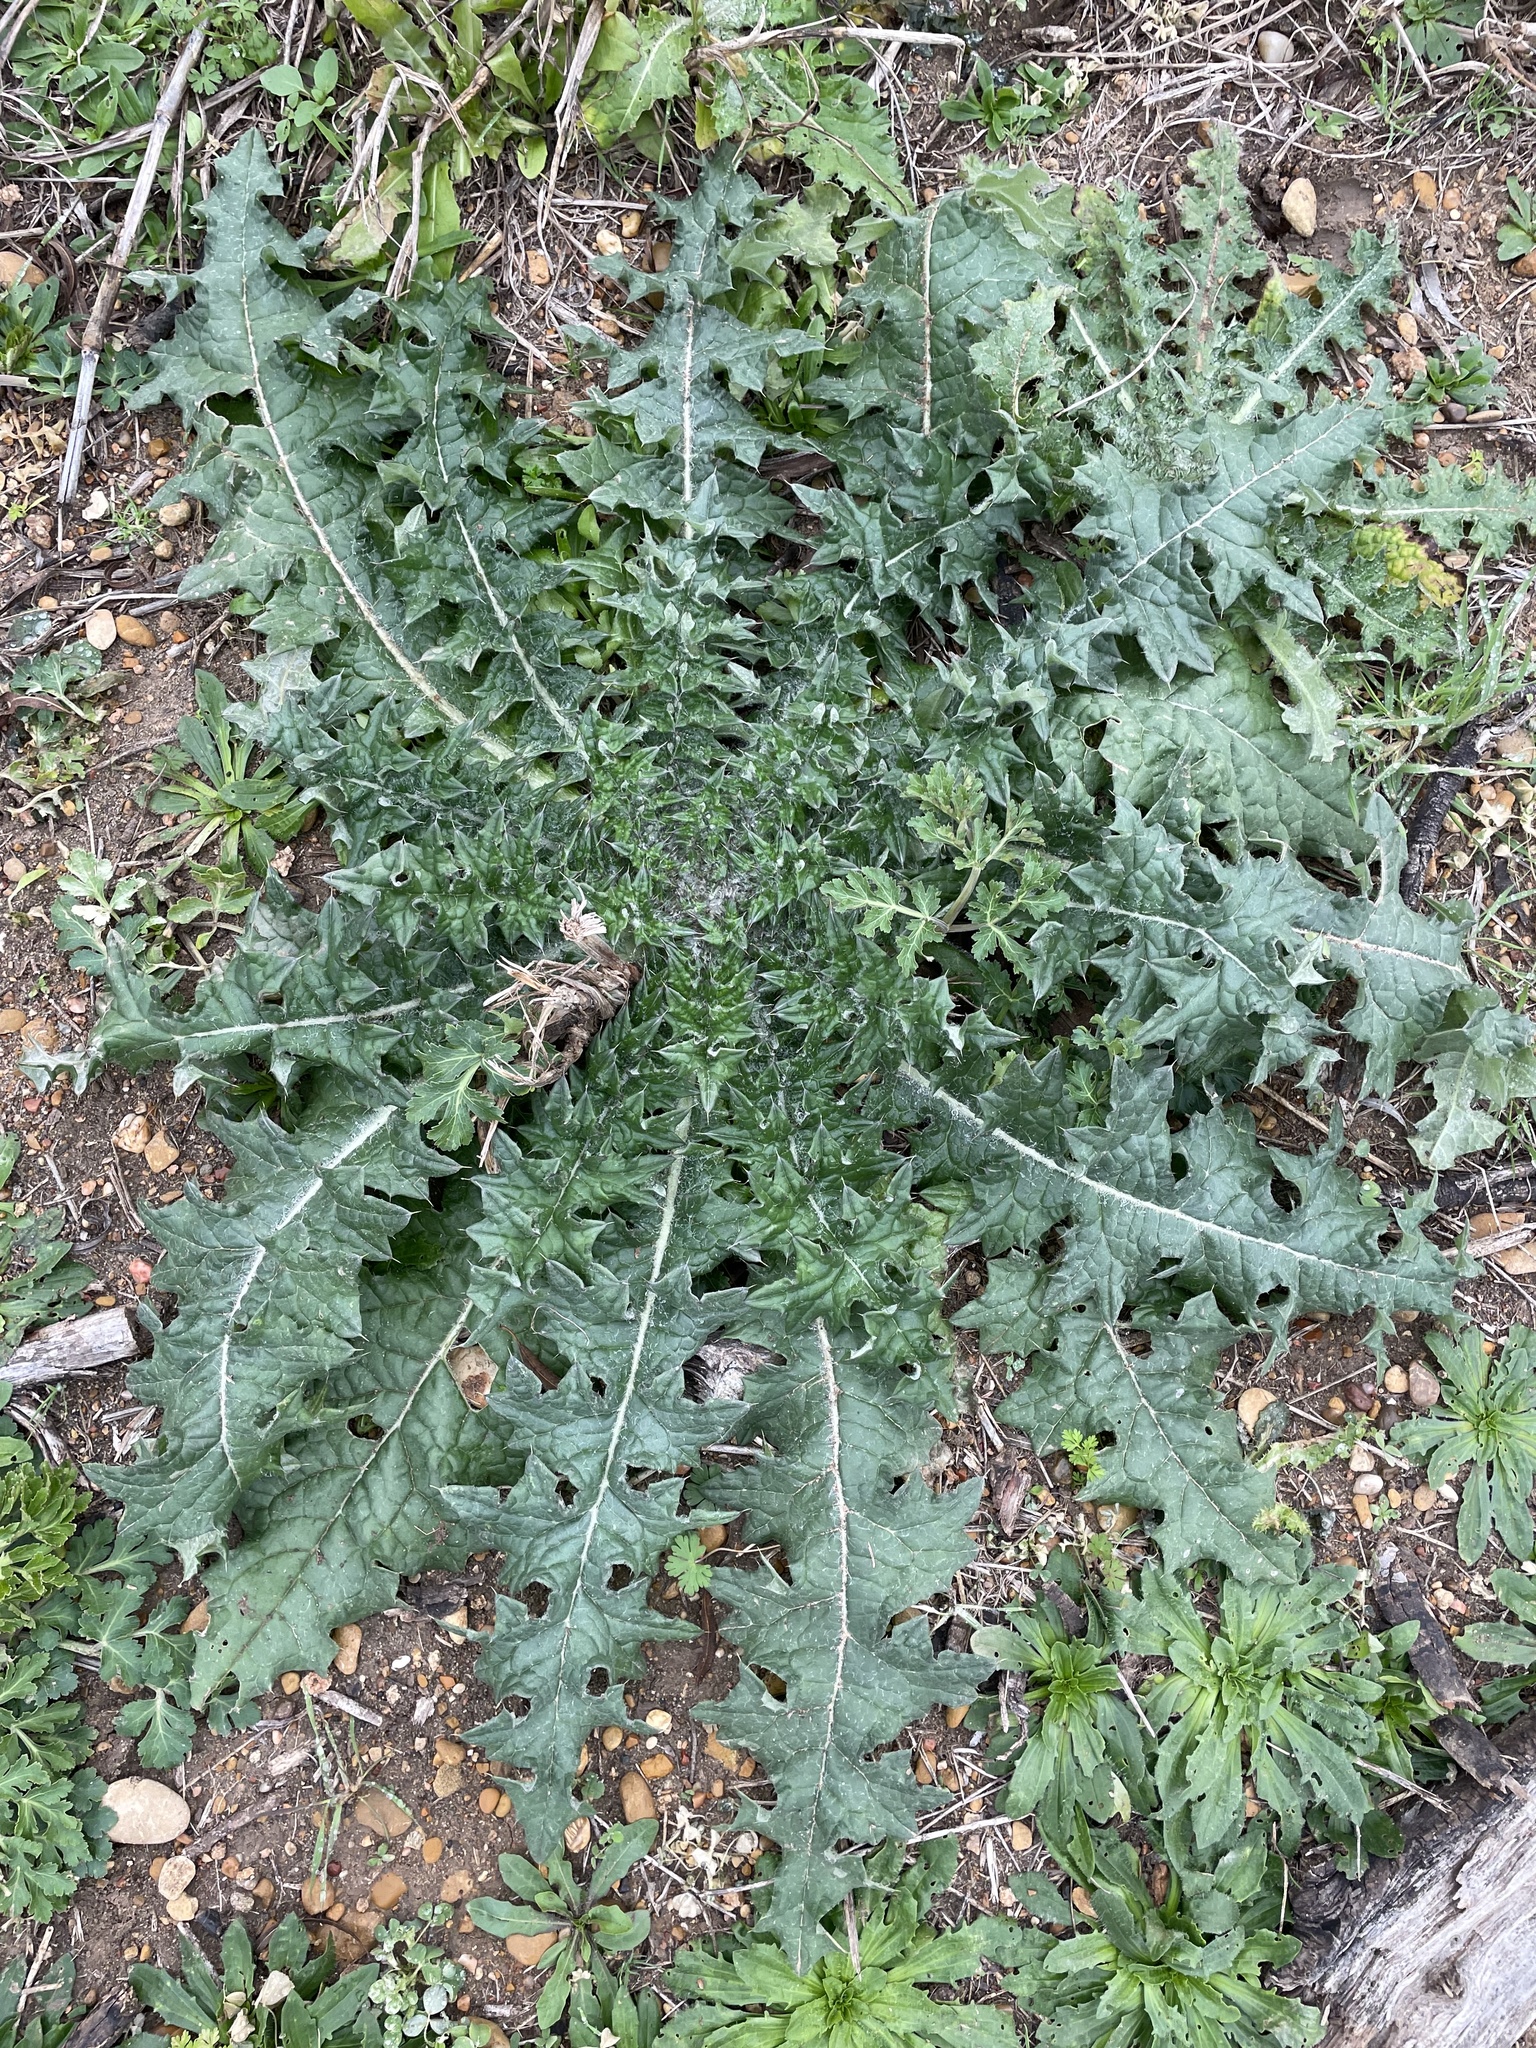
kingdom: Plantae
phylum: Tracheophyta
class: Magnoliopsida
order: Asterales
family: Asteraceae
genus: Cirsium
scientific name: Cirsium texanum
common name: Texas purple thistle
